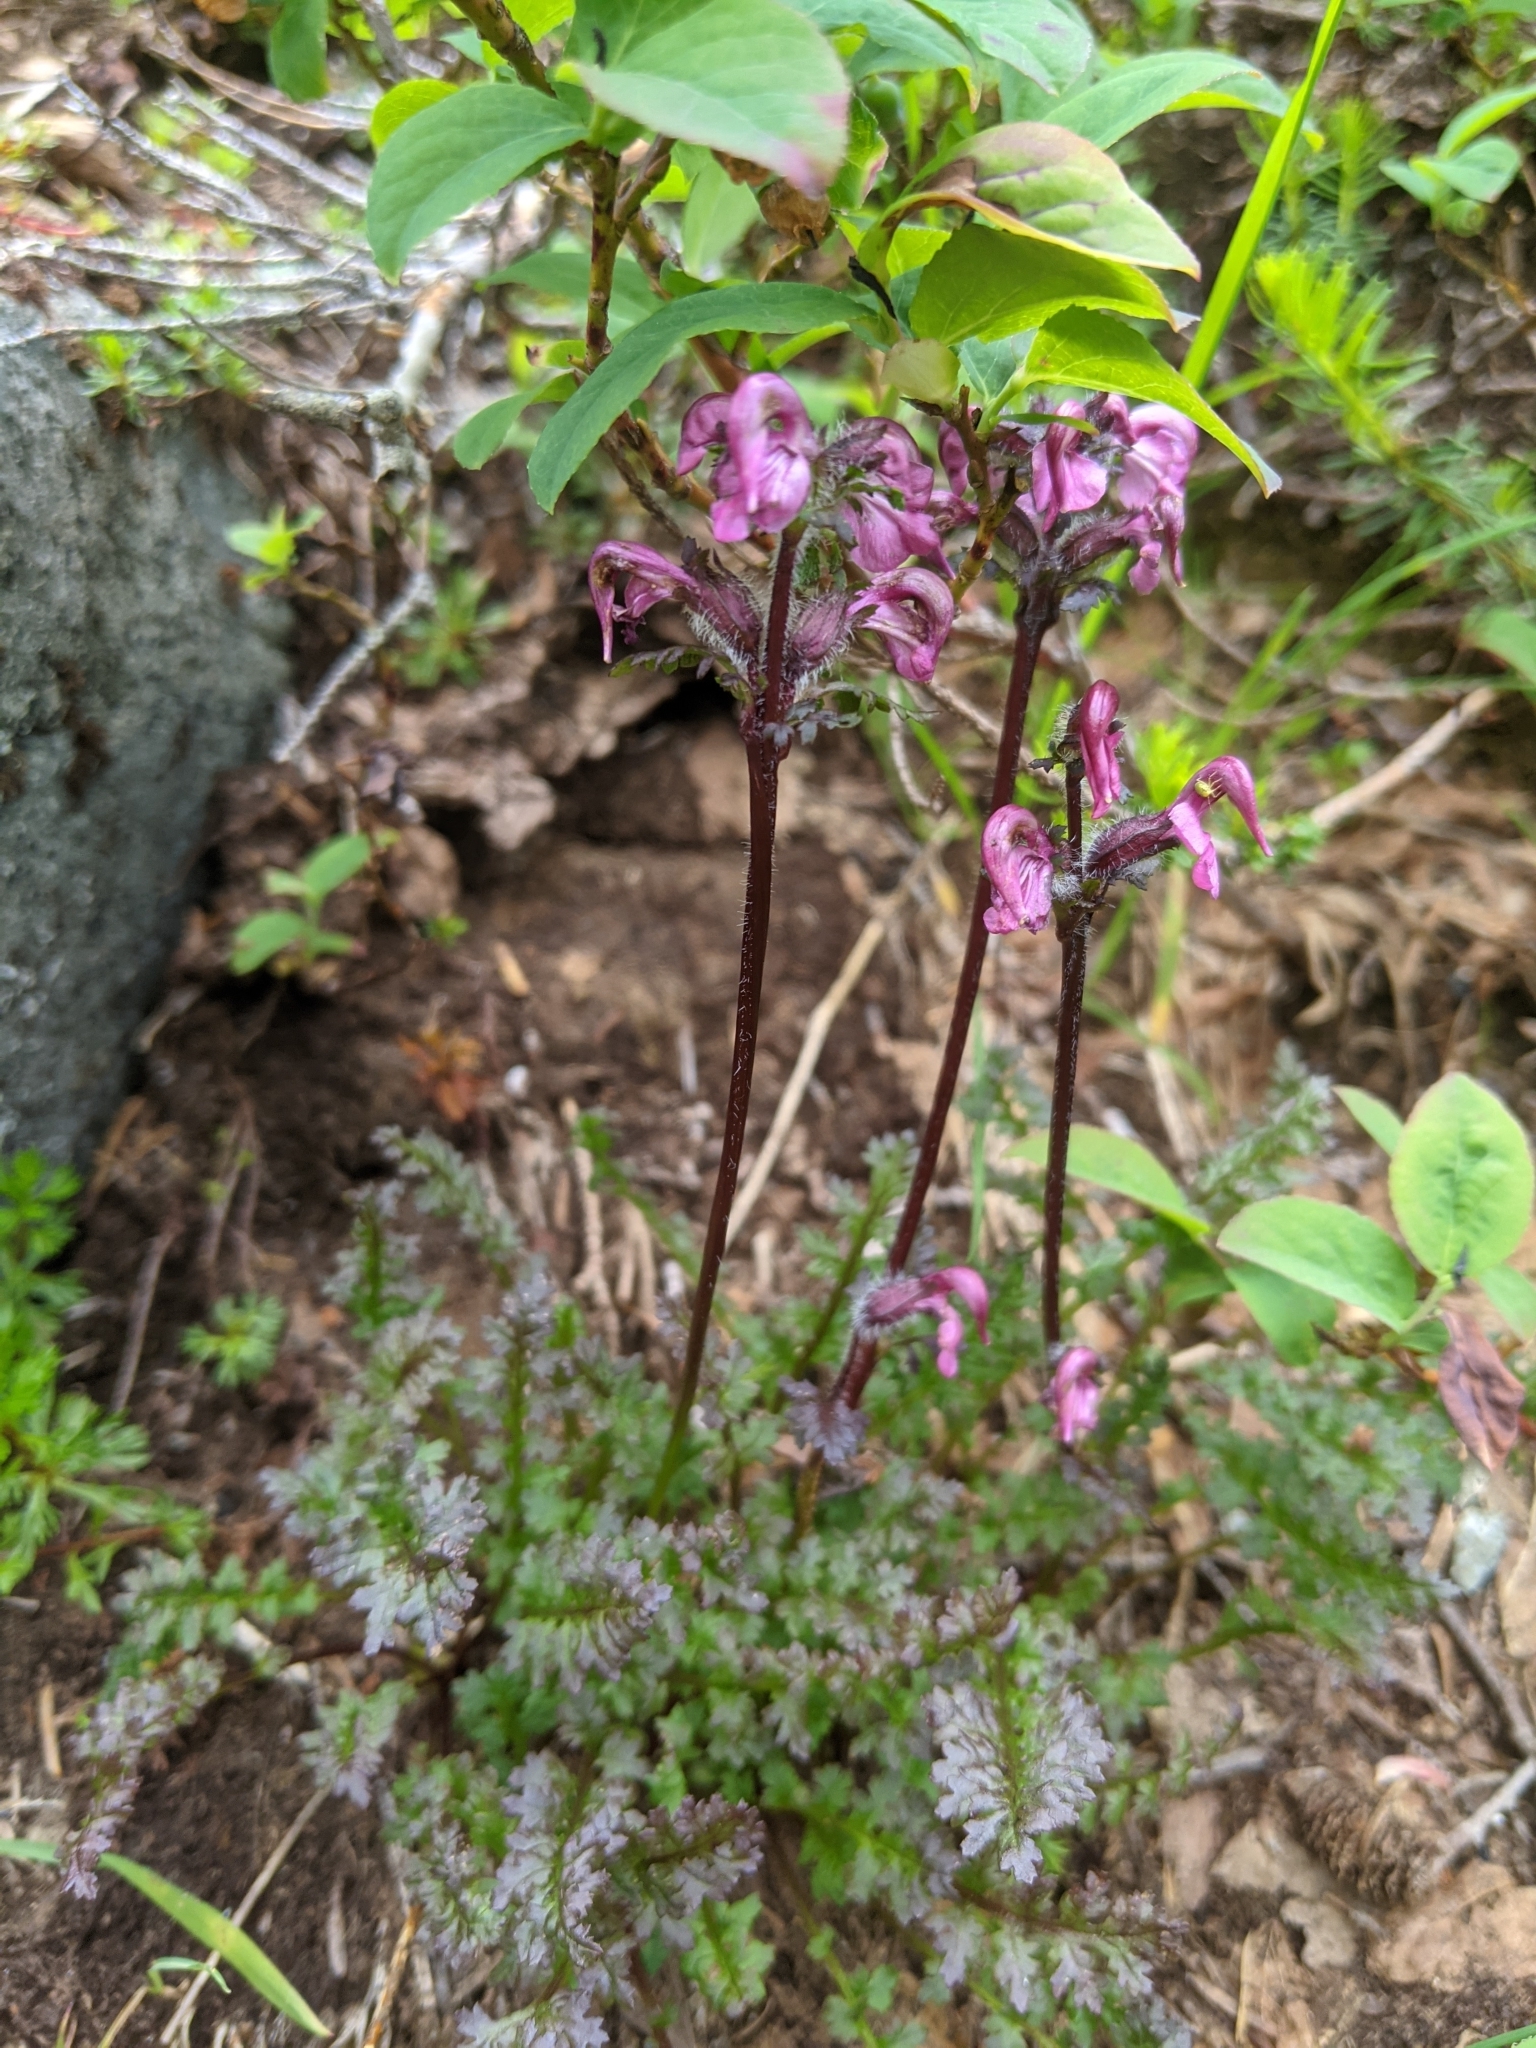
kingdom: Plantae
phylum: Tracheophyta
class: Magnoliopsida
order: Lamiales
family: Orobanchaceae
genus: Pedicularis
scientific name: Pedicularis ornithorhynchos
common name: Bird's-beak lousewort
